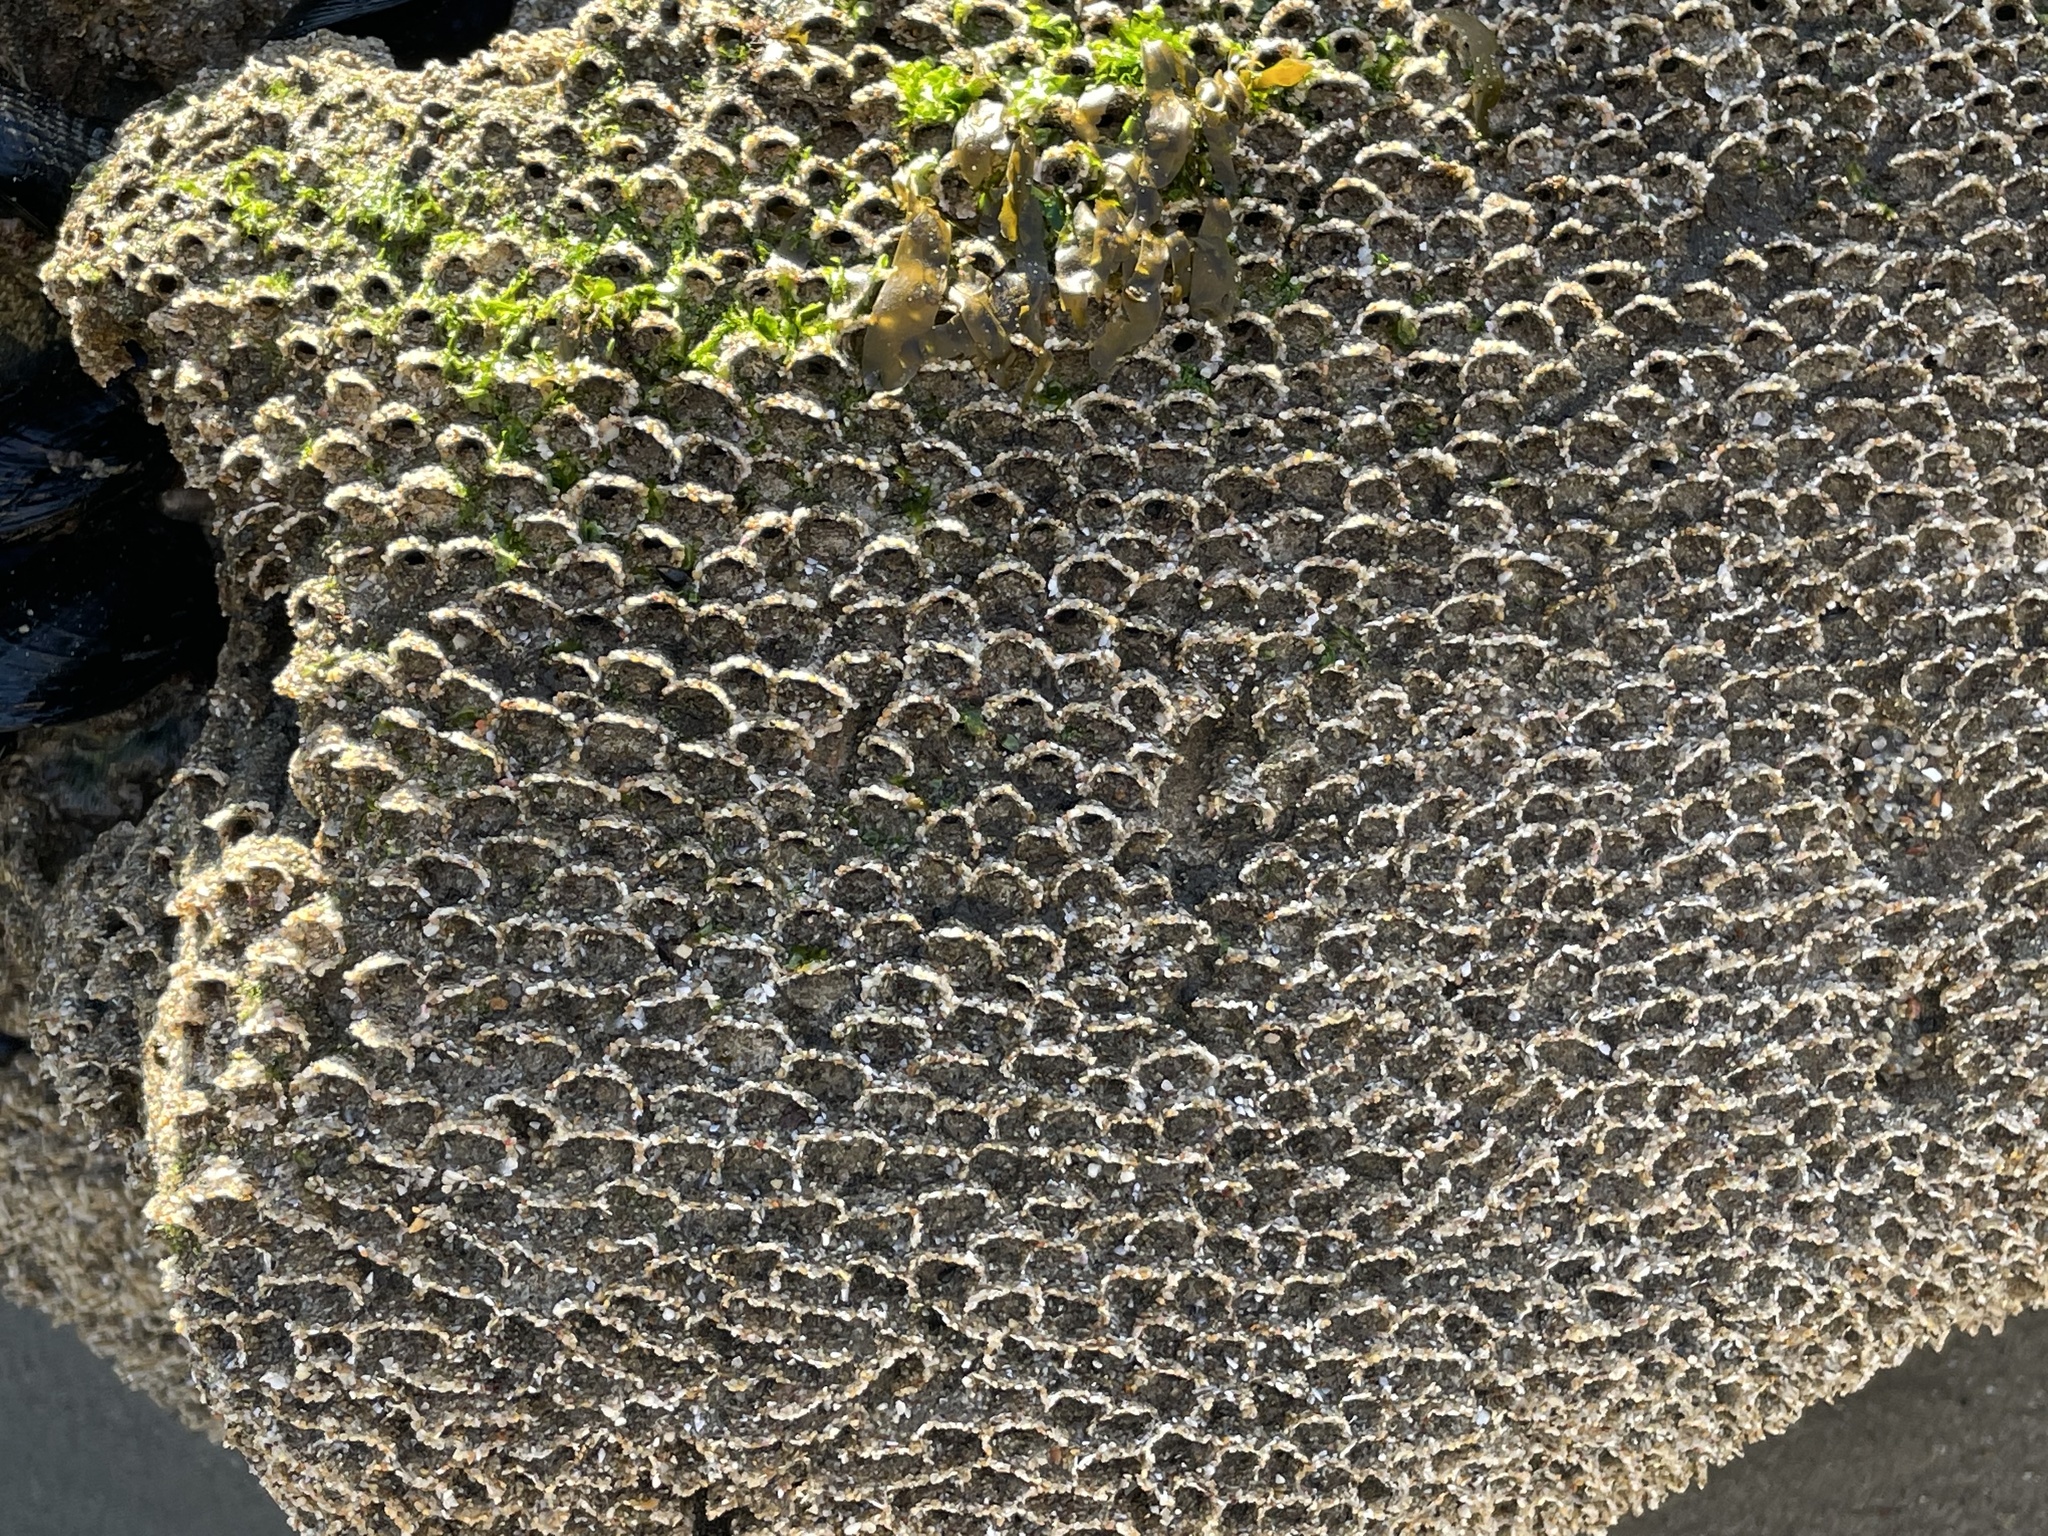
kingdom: Animalia
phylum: Annelida
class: Polychaeta
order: Sabellida
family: Sabellariidae
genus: Phragmatopoma
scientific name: Phragmatopoma californica
